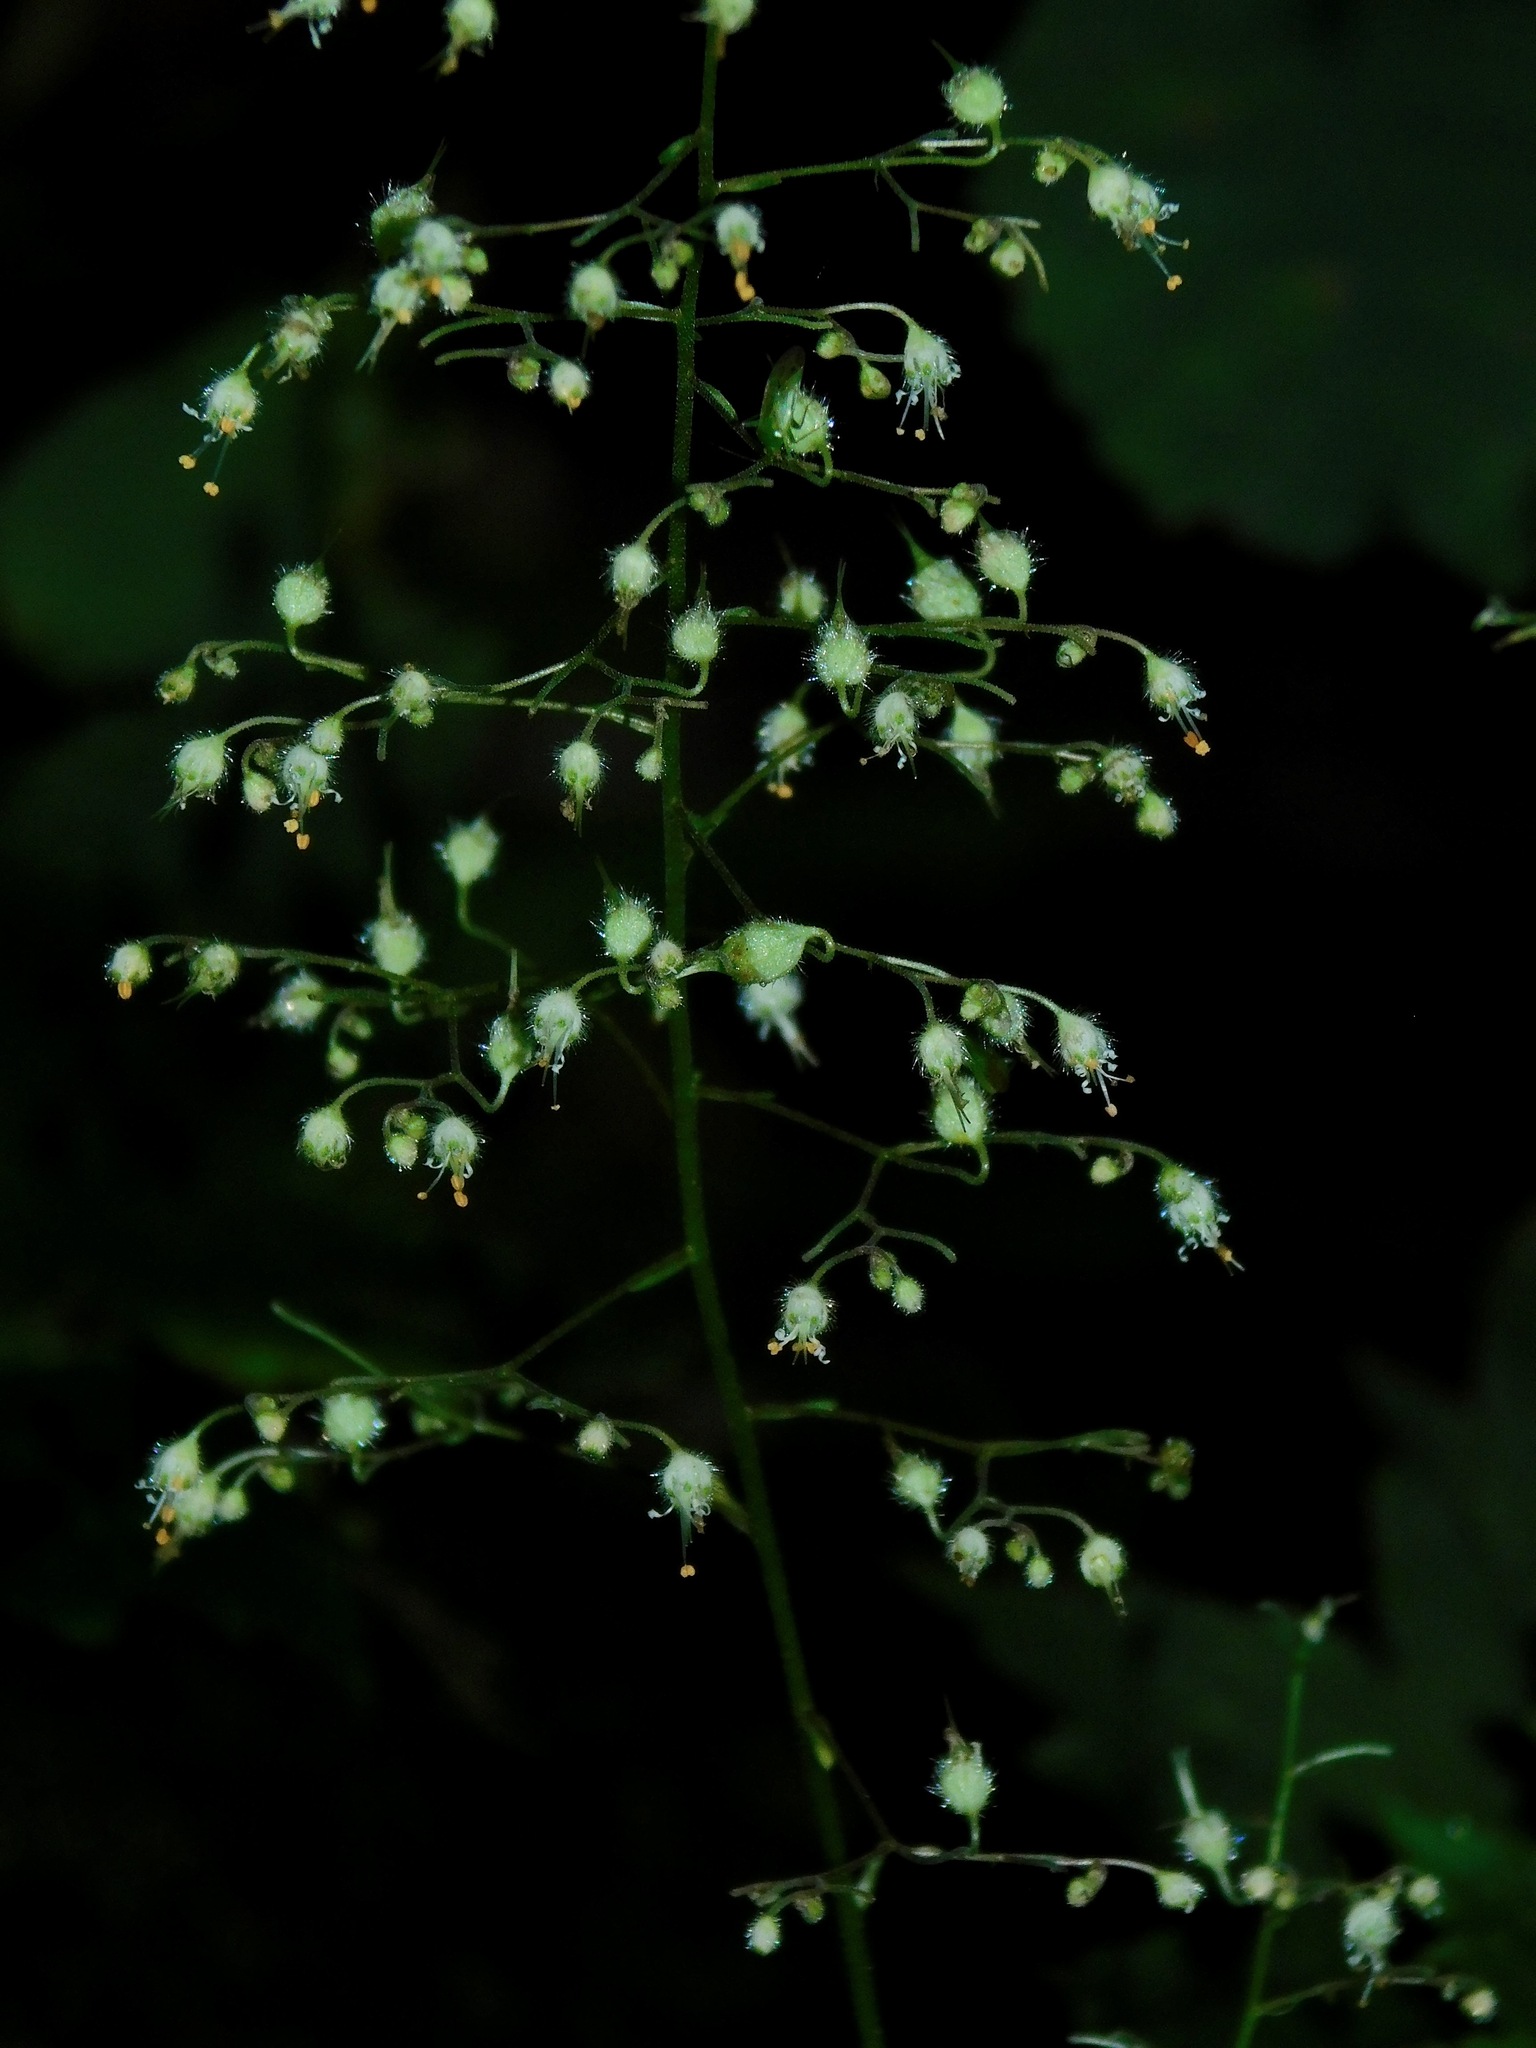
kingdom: Plantae
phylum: Tracheophyta
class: Magnoliopsida
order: Saxifragales
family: Saxifragaceae
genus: Heuchera
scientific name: Heuchera villosa
